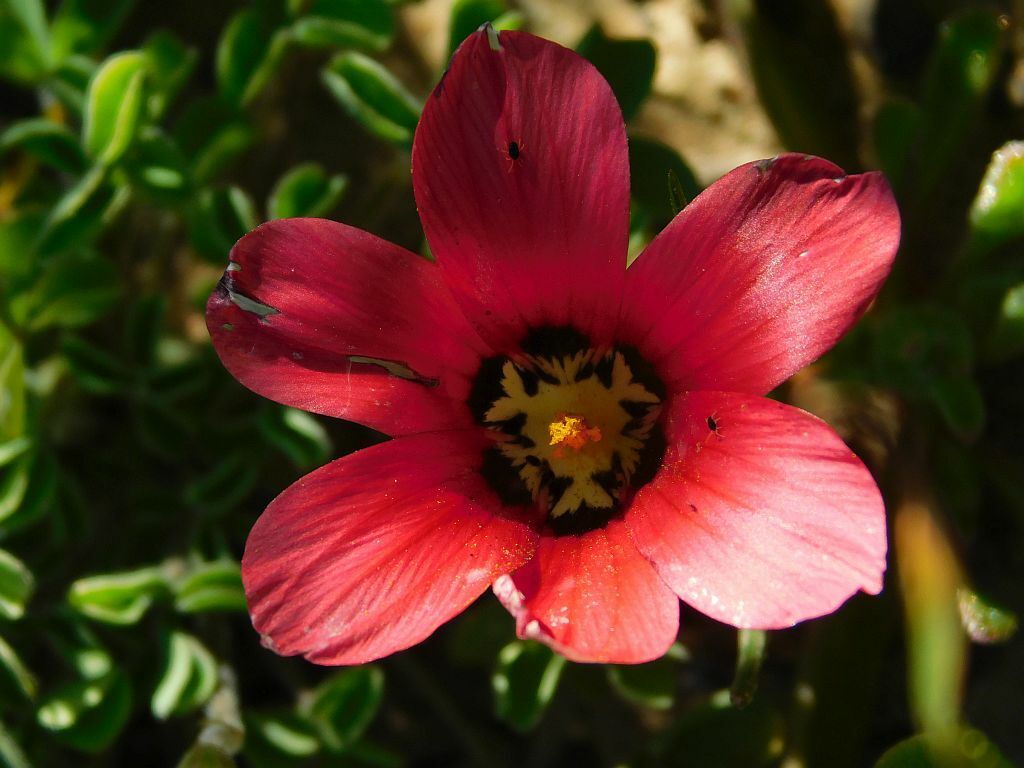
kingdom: Plantae
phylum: Tracheophyta
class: Liliopsida
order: Asparagales
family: Iridaceae
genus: Romulea
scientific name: Romulea pudica
